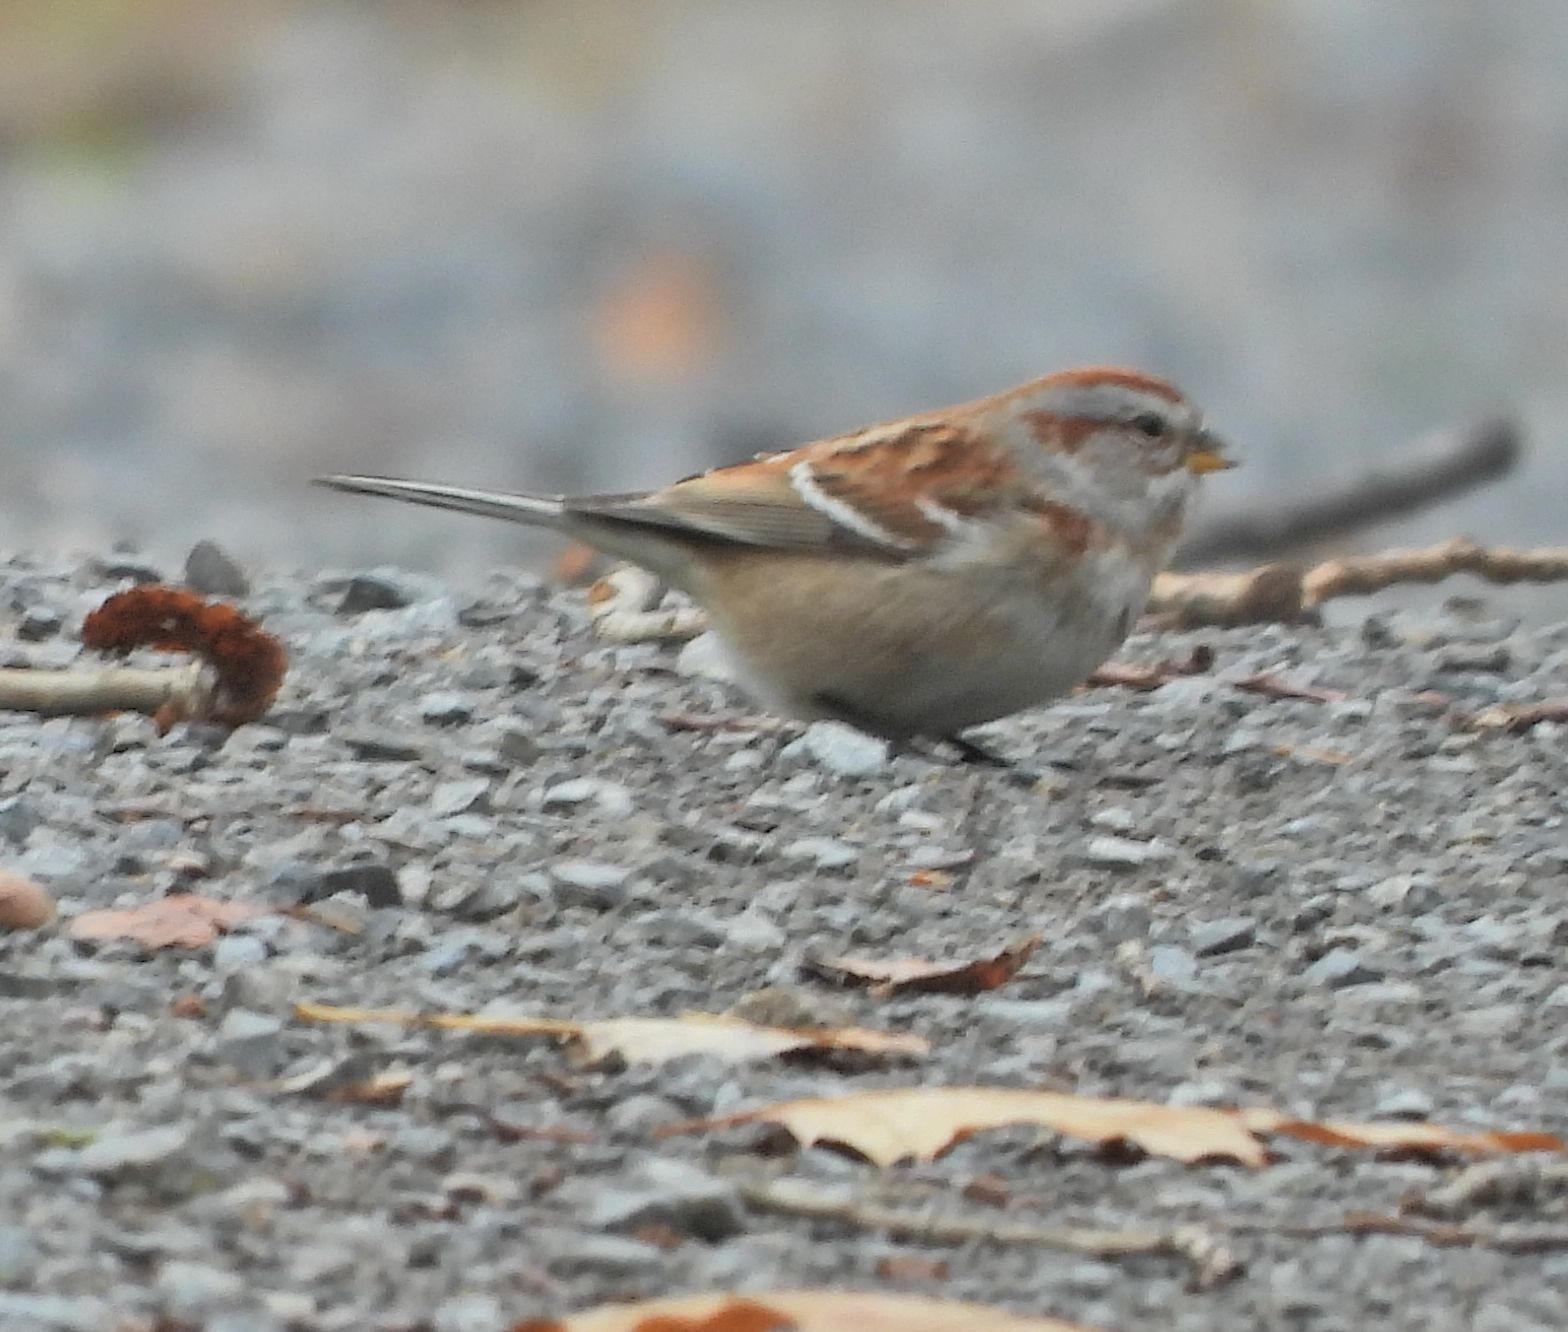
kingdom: Animalia
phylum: Chordata
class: Aves
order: Passeriformes
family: Passerellidae
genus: Spizelloides
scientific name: Spizelloides arborea
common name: American tree sparrow
